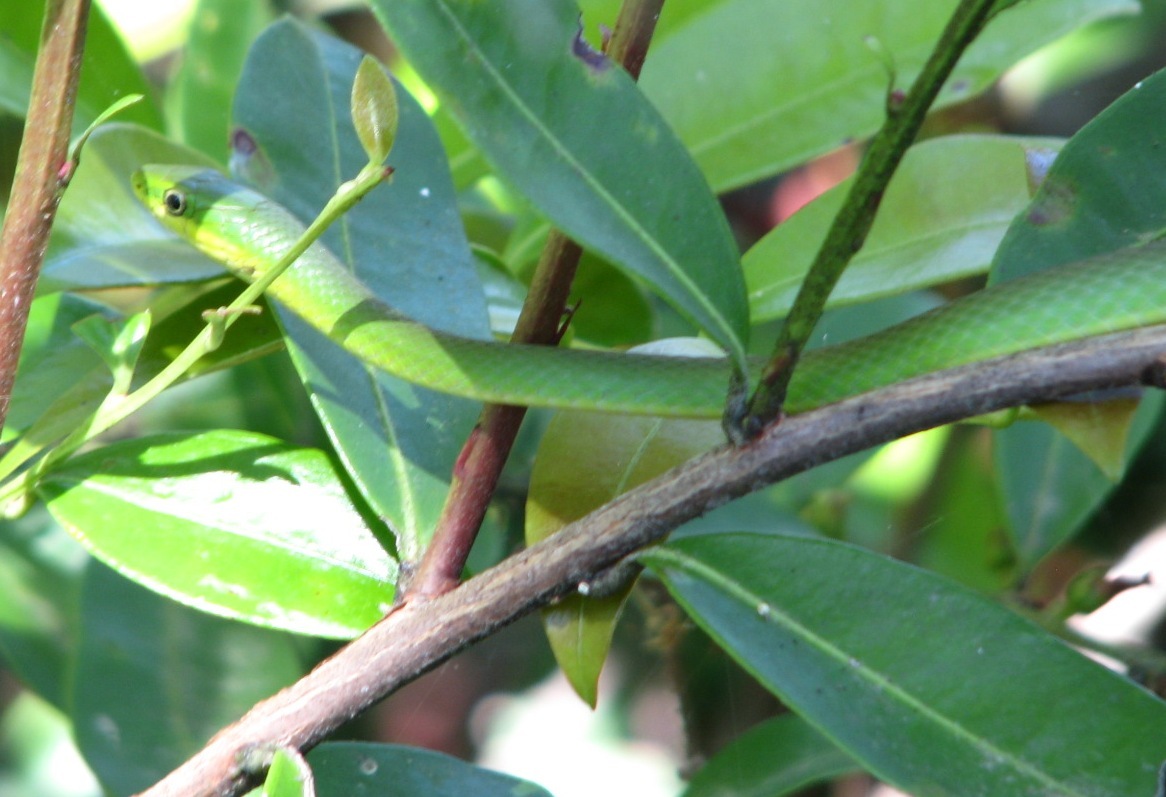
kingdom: Animalia
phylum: Chordata
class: Squamata
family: Colubridae
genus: Opheodrys
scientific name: Opheodrys aestivus
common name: Rough greensnake
